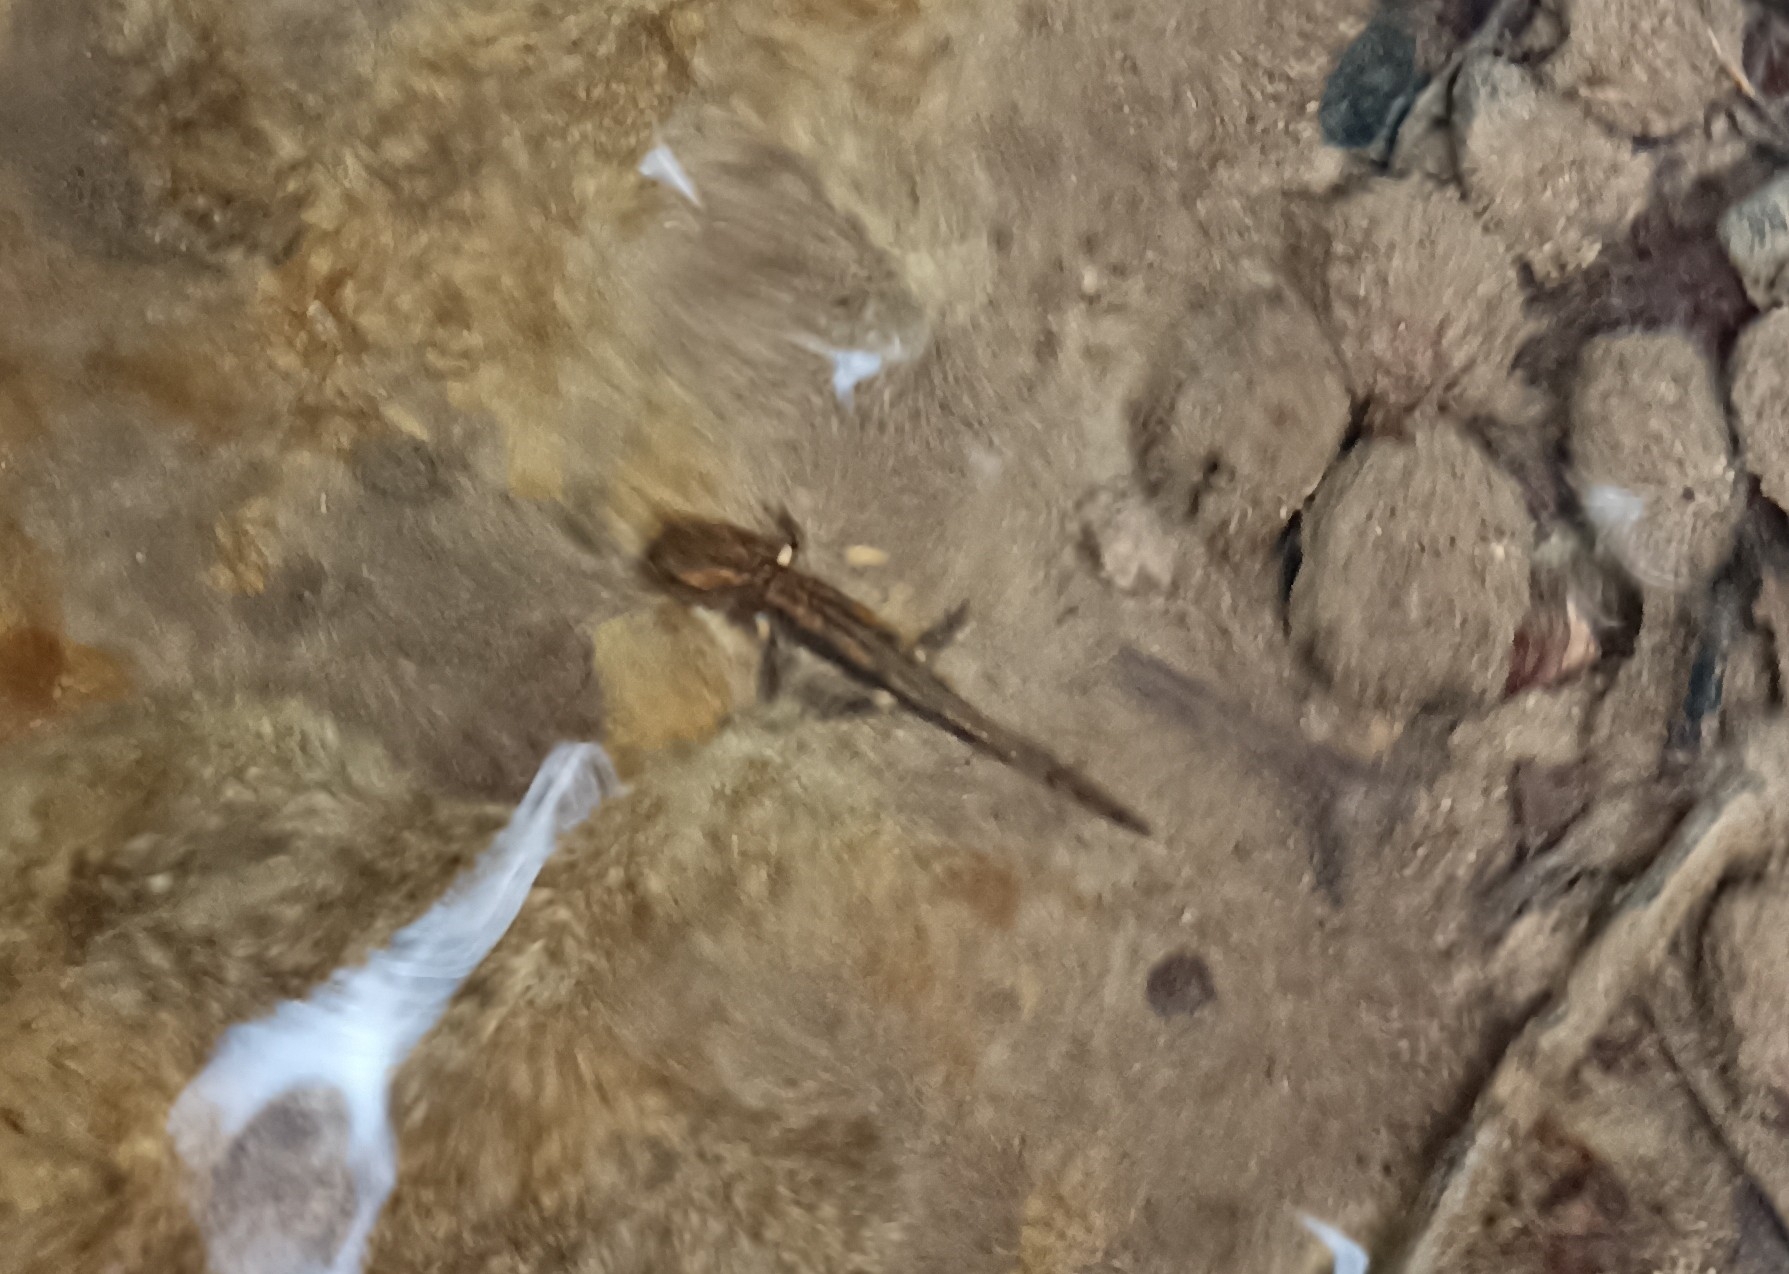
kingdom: Animalia
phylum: Chordata
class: Amphibia
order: Caudata
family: Salamandridae
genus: Salamandra
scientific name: Salamandra salamandra
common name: Fire salamander
